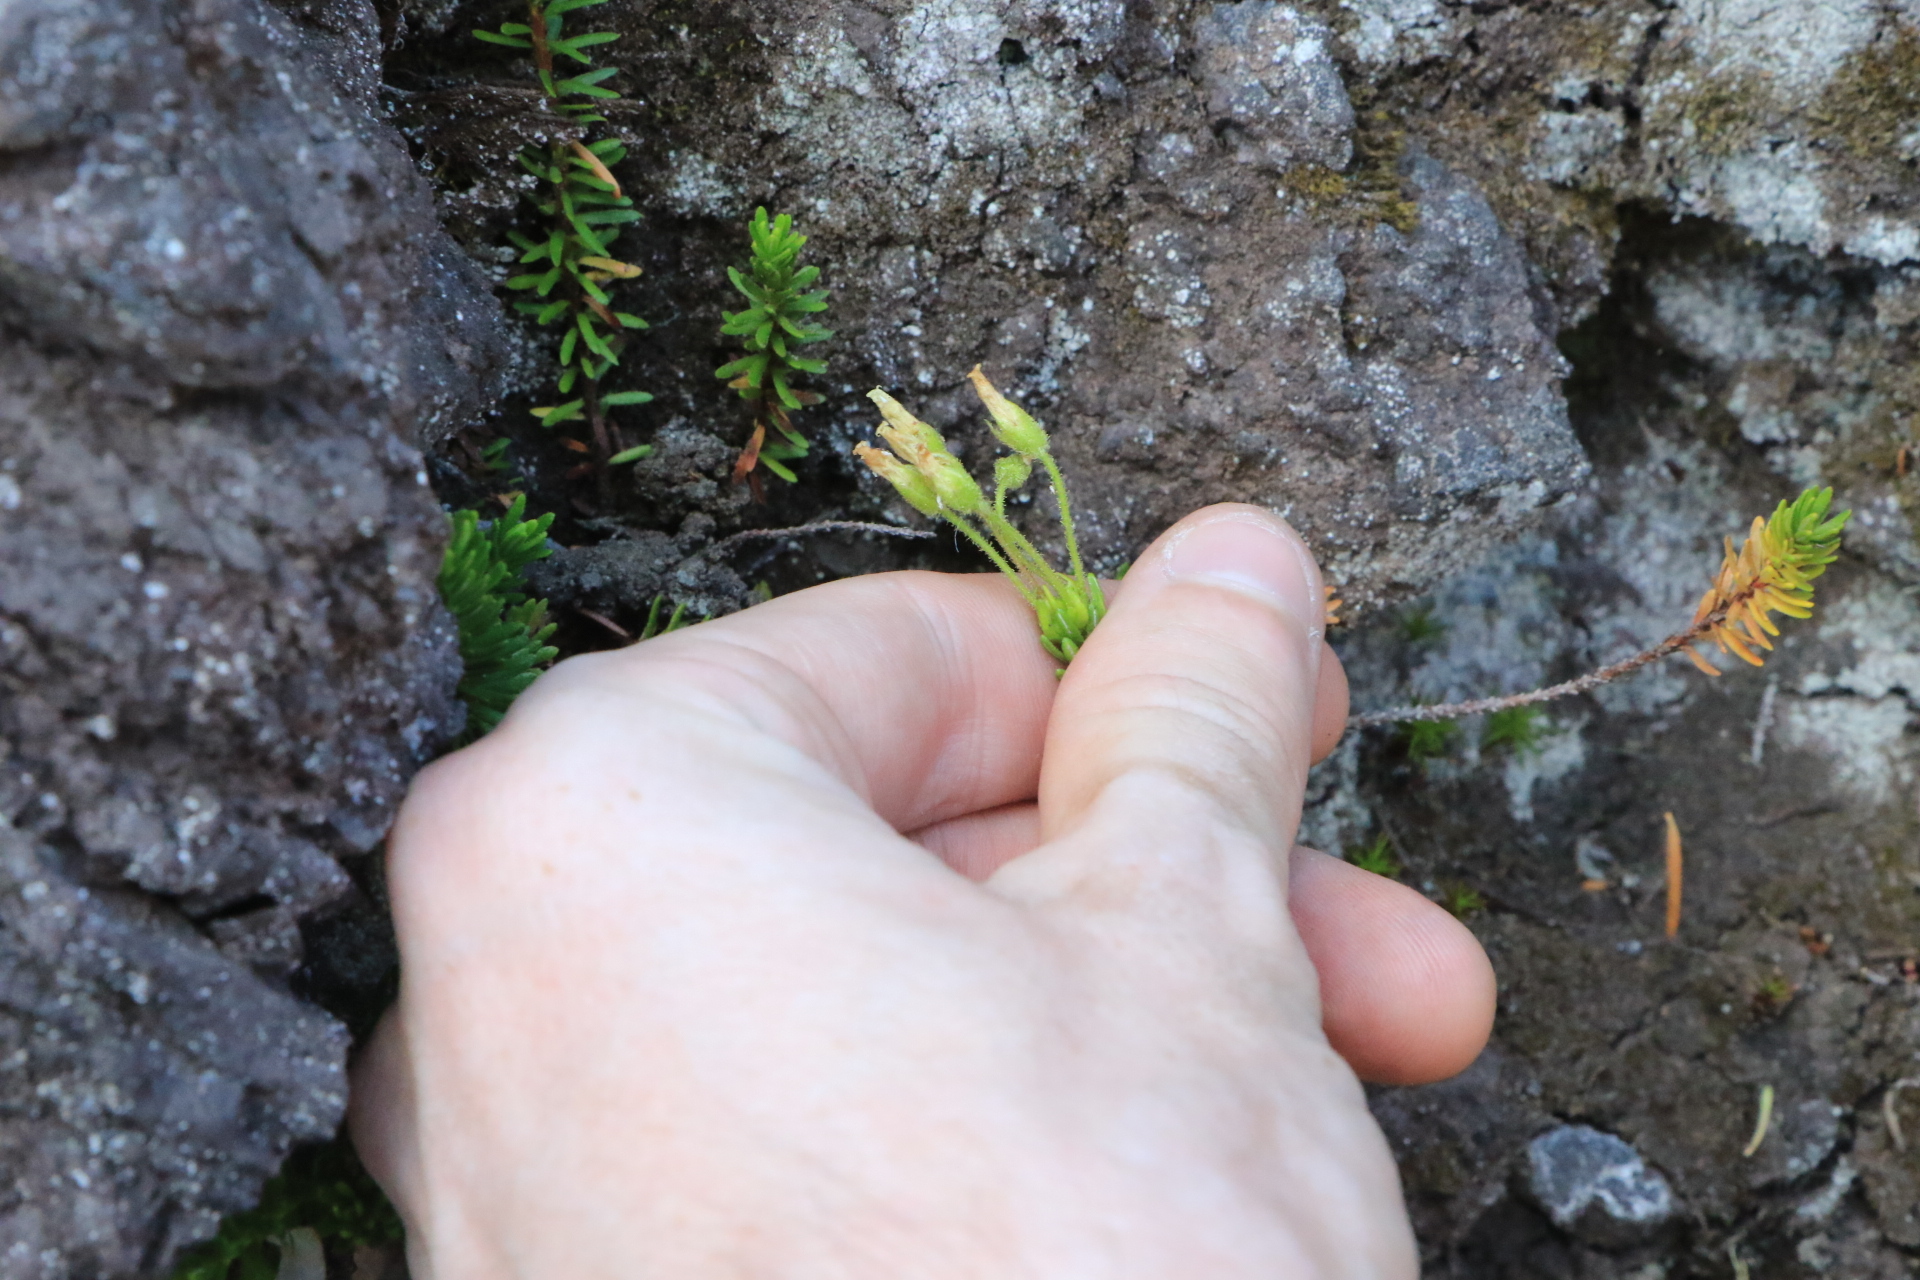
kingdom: Plantae
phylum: Tracheophyta
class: Magnoliopsida
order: Ericales
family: Ericaceae
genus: Phyllodoce
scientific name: Phyllodoce glanduliflora
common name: Cream mountain heather
